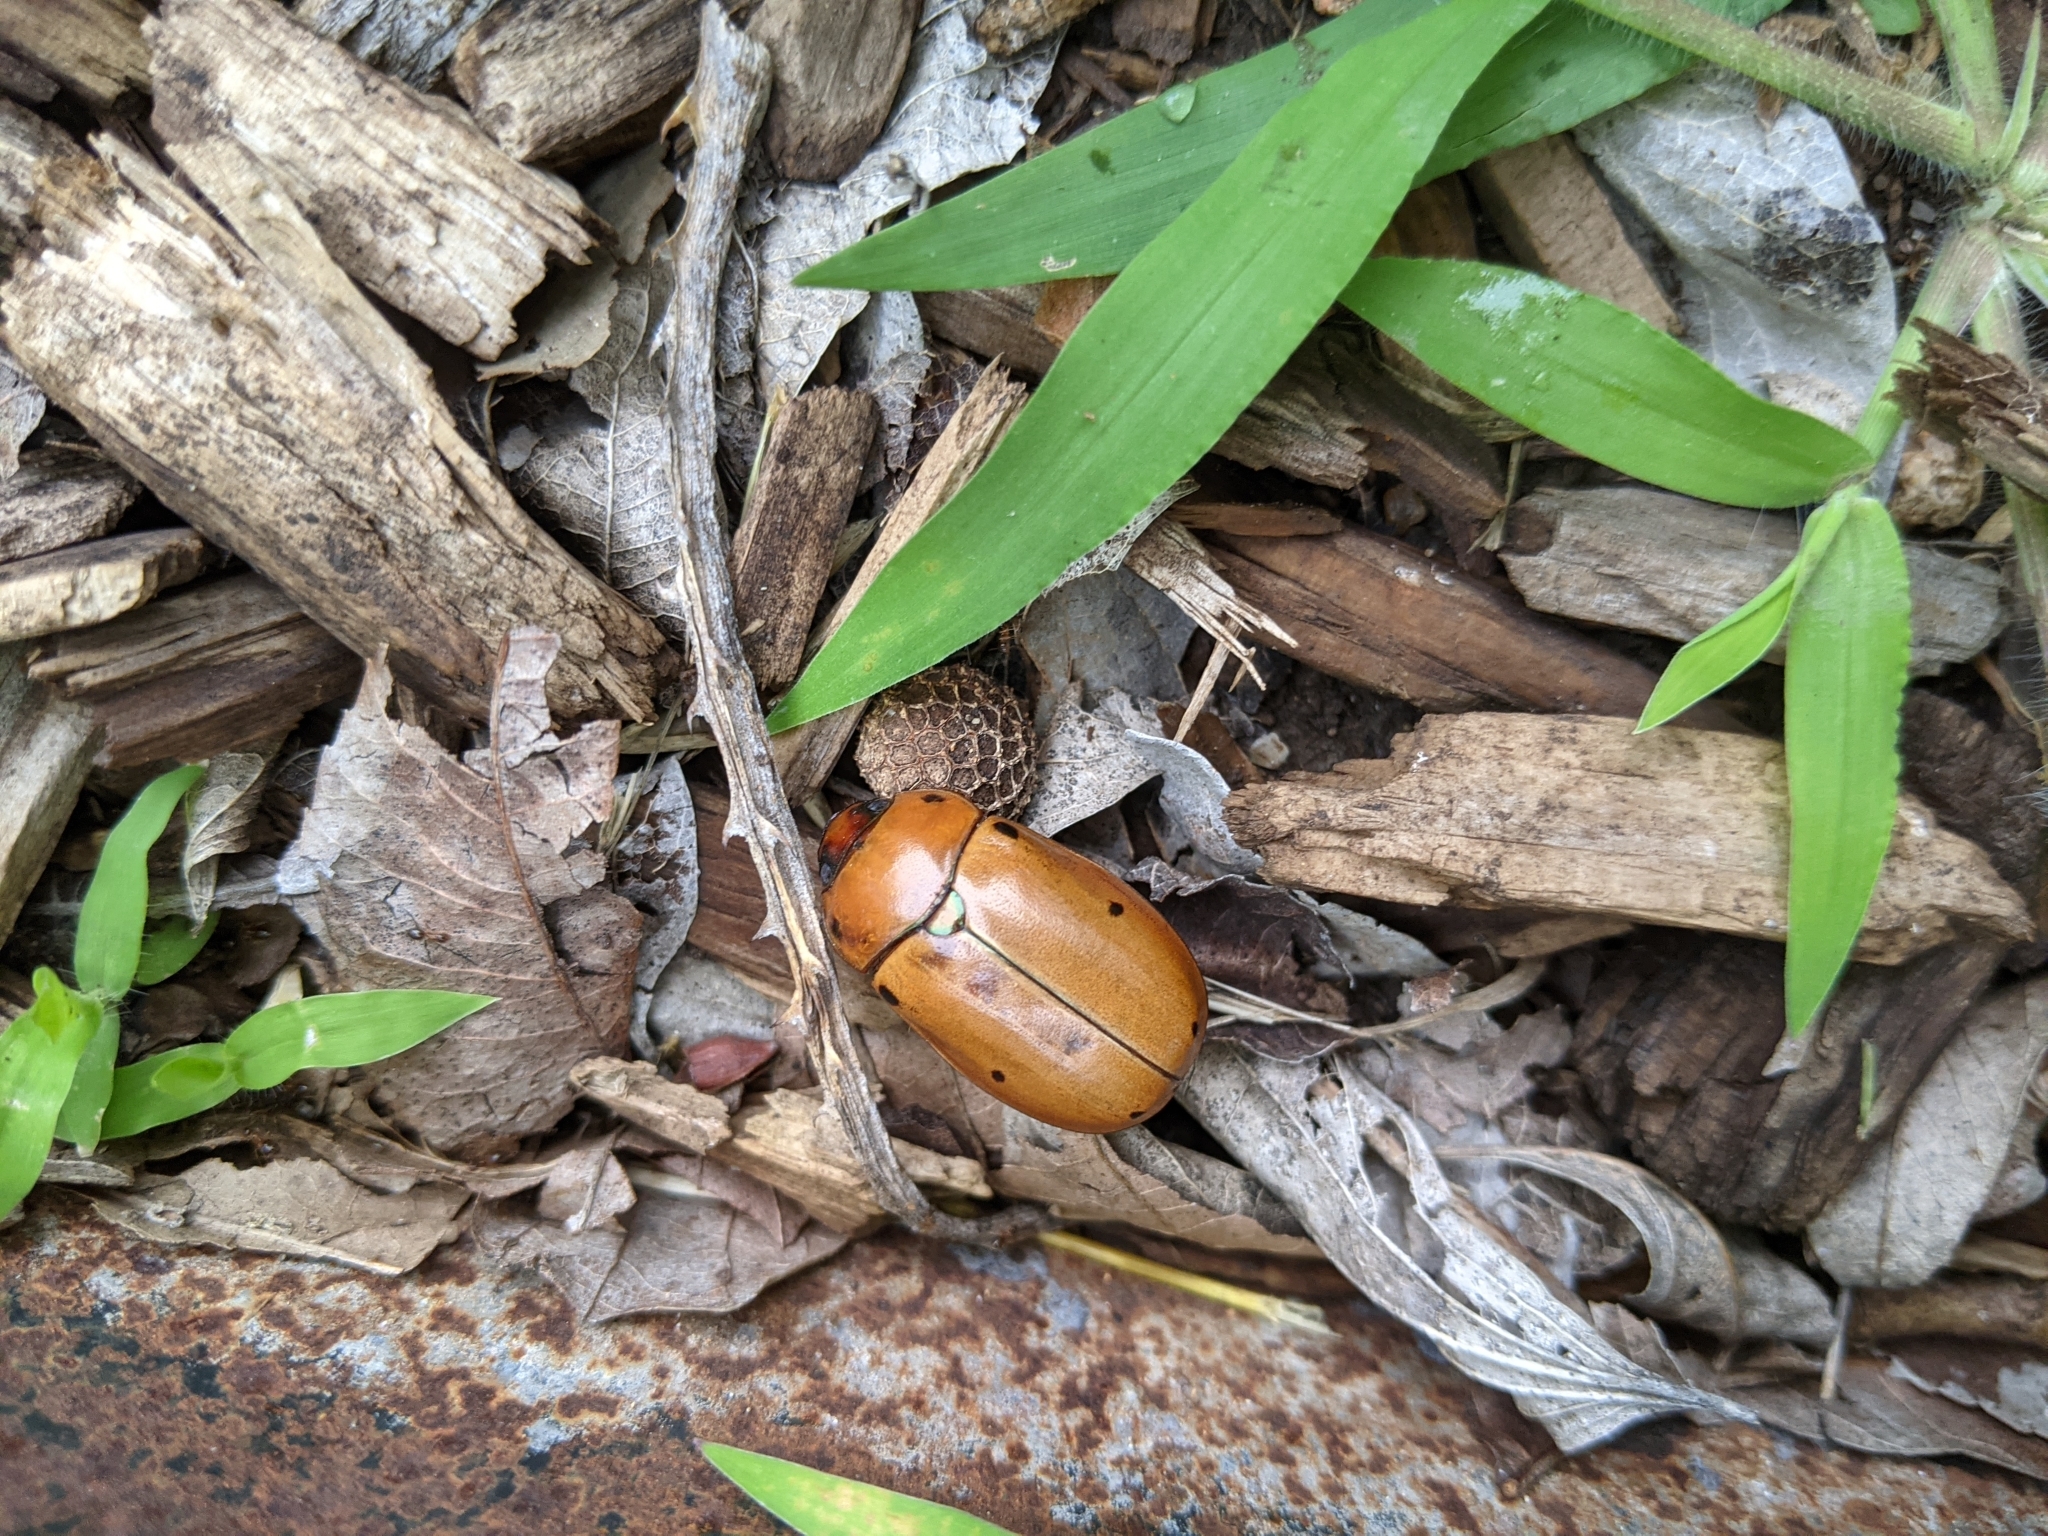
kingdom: Animalia
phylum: Arthropoda
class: Insecta
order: Coleoptera
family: Scarabaeidae
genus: Pelidnota
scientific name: Pelidnota punctata
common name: Grapevine beetle
